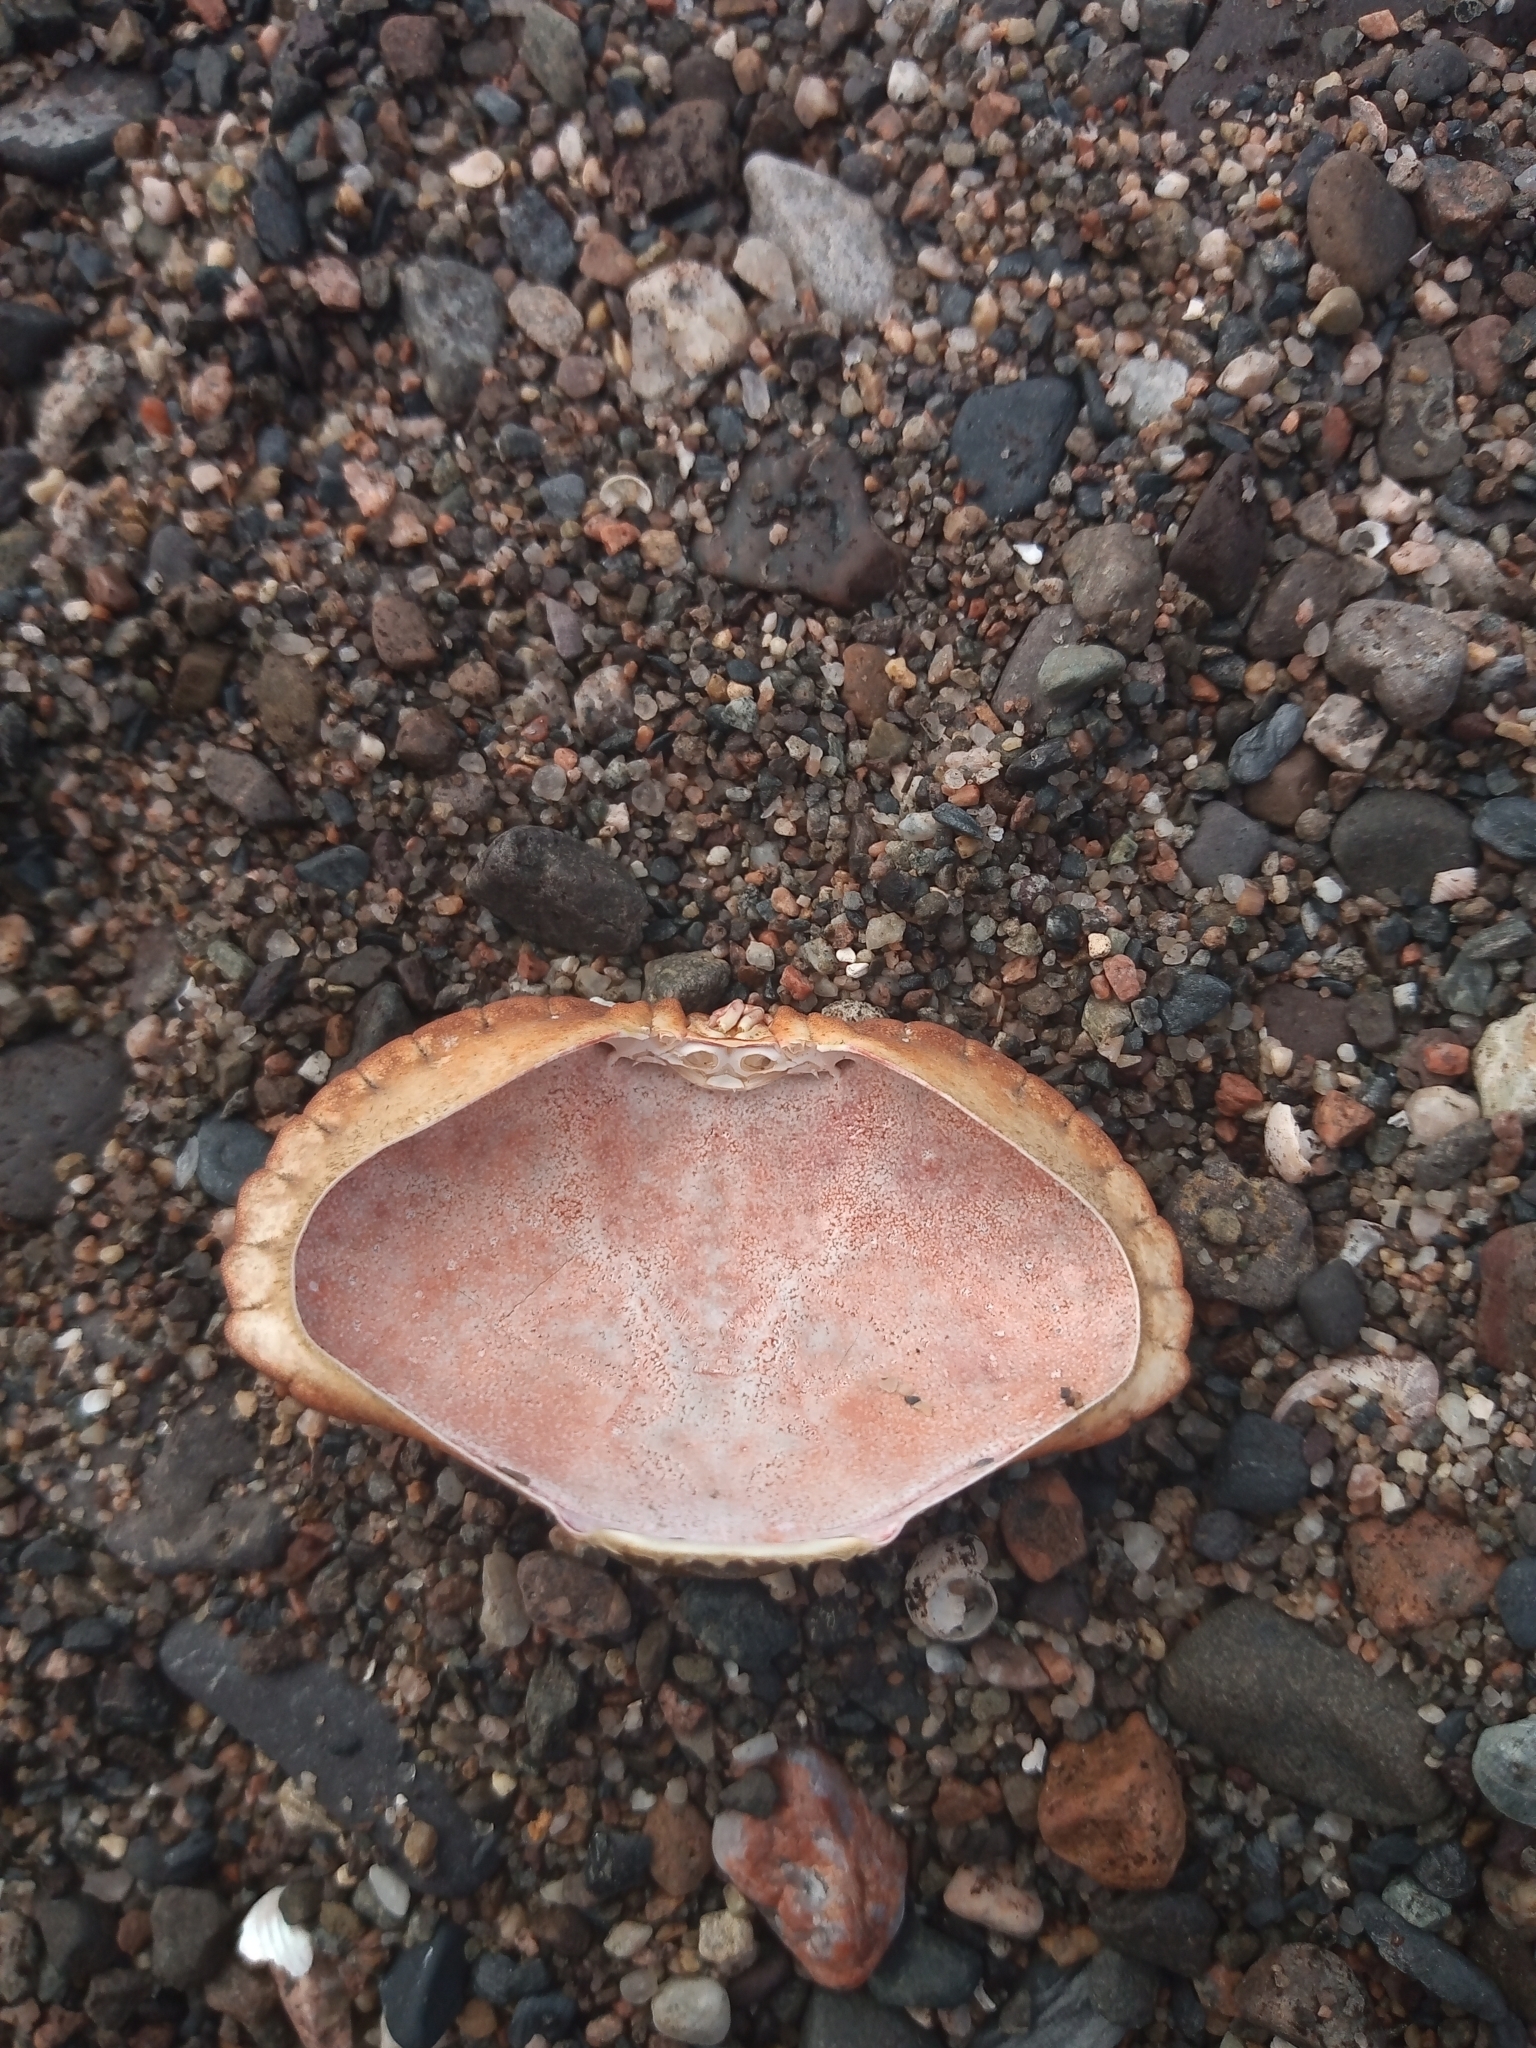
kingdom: Animalia
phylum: Arthropoda
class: Malacostraca
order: Decapoda
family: Cancridae
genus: Cancer
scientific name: Cancer pagurus
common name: Edible crab
